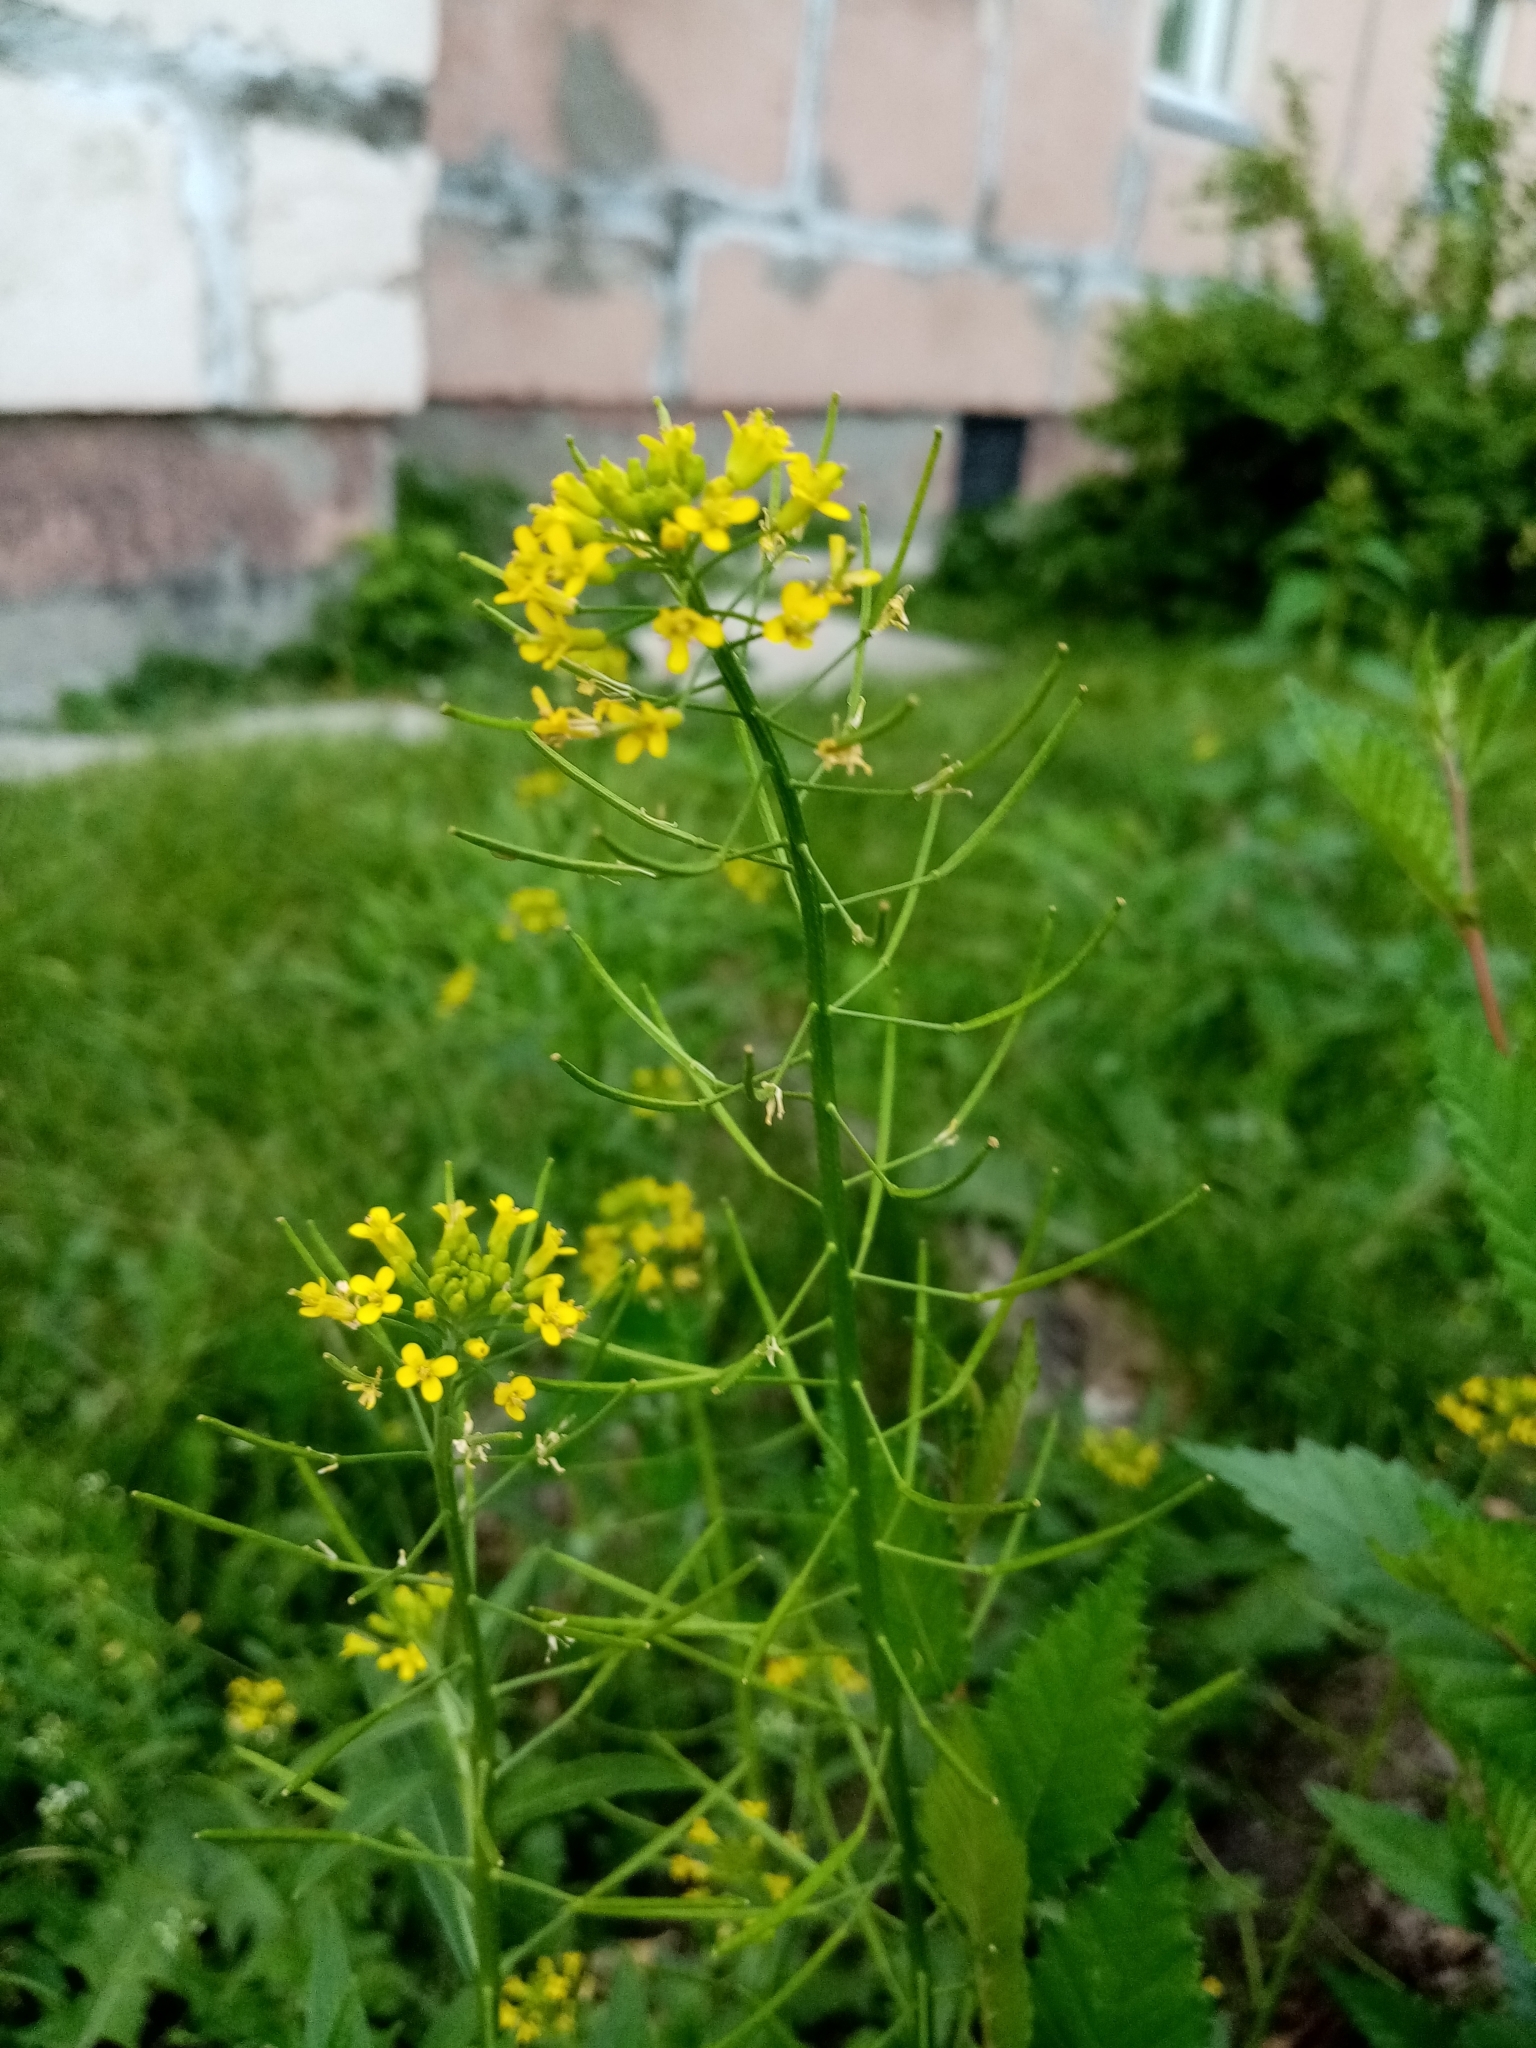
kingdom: Plantae
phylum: Tracheophyta
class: Magnoliopsida
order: Brassicales
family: Brassicaceae
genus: Erysimum
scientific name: Erysimum cheiranthoides
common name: Treacle mustard
